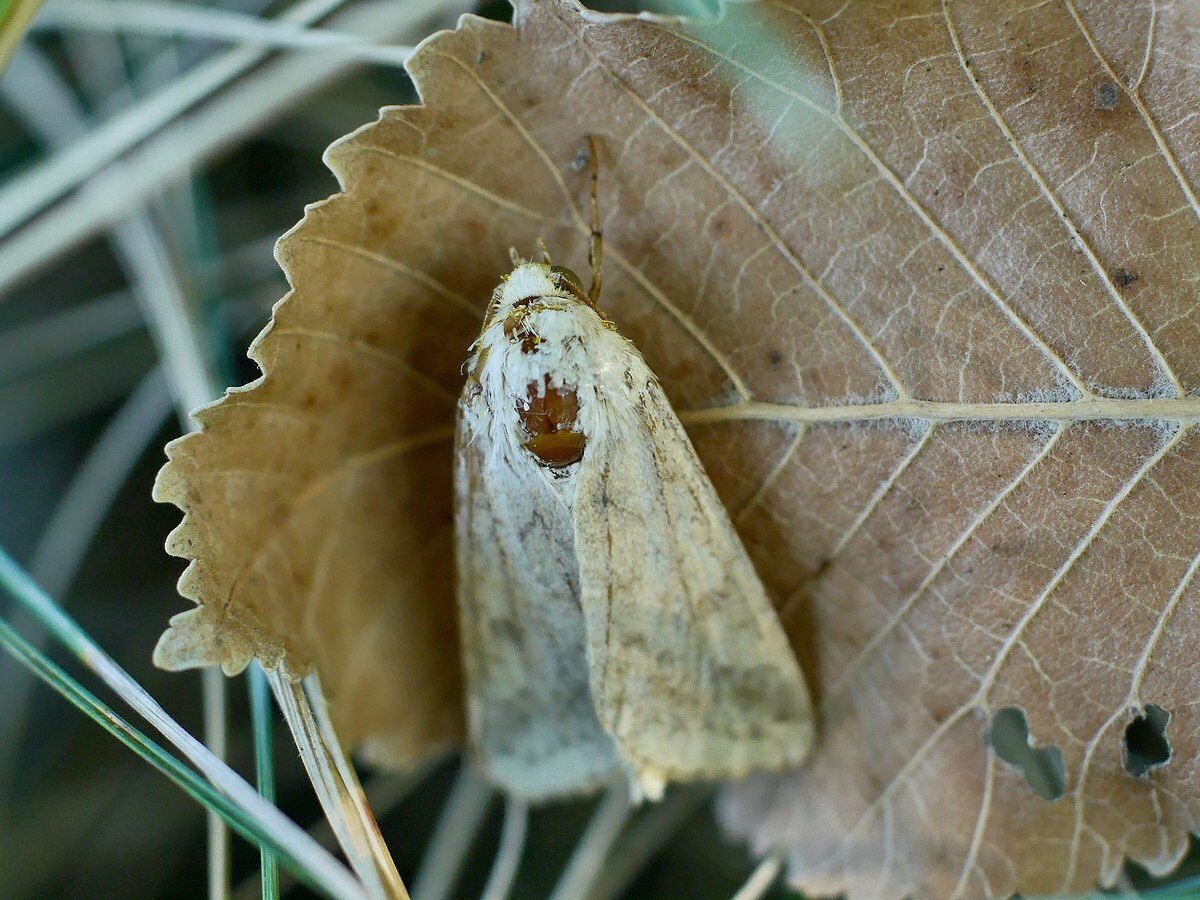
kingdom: Animalia
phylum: Arthropoda
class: Insecta
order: Lepidoptera
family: Noctuidae
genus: Helicoverpa
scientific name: Helicoverpa armigera
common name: Cotton bollworm
